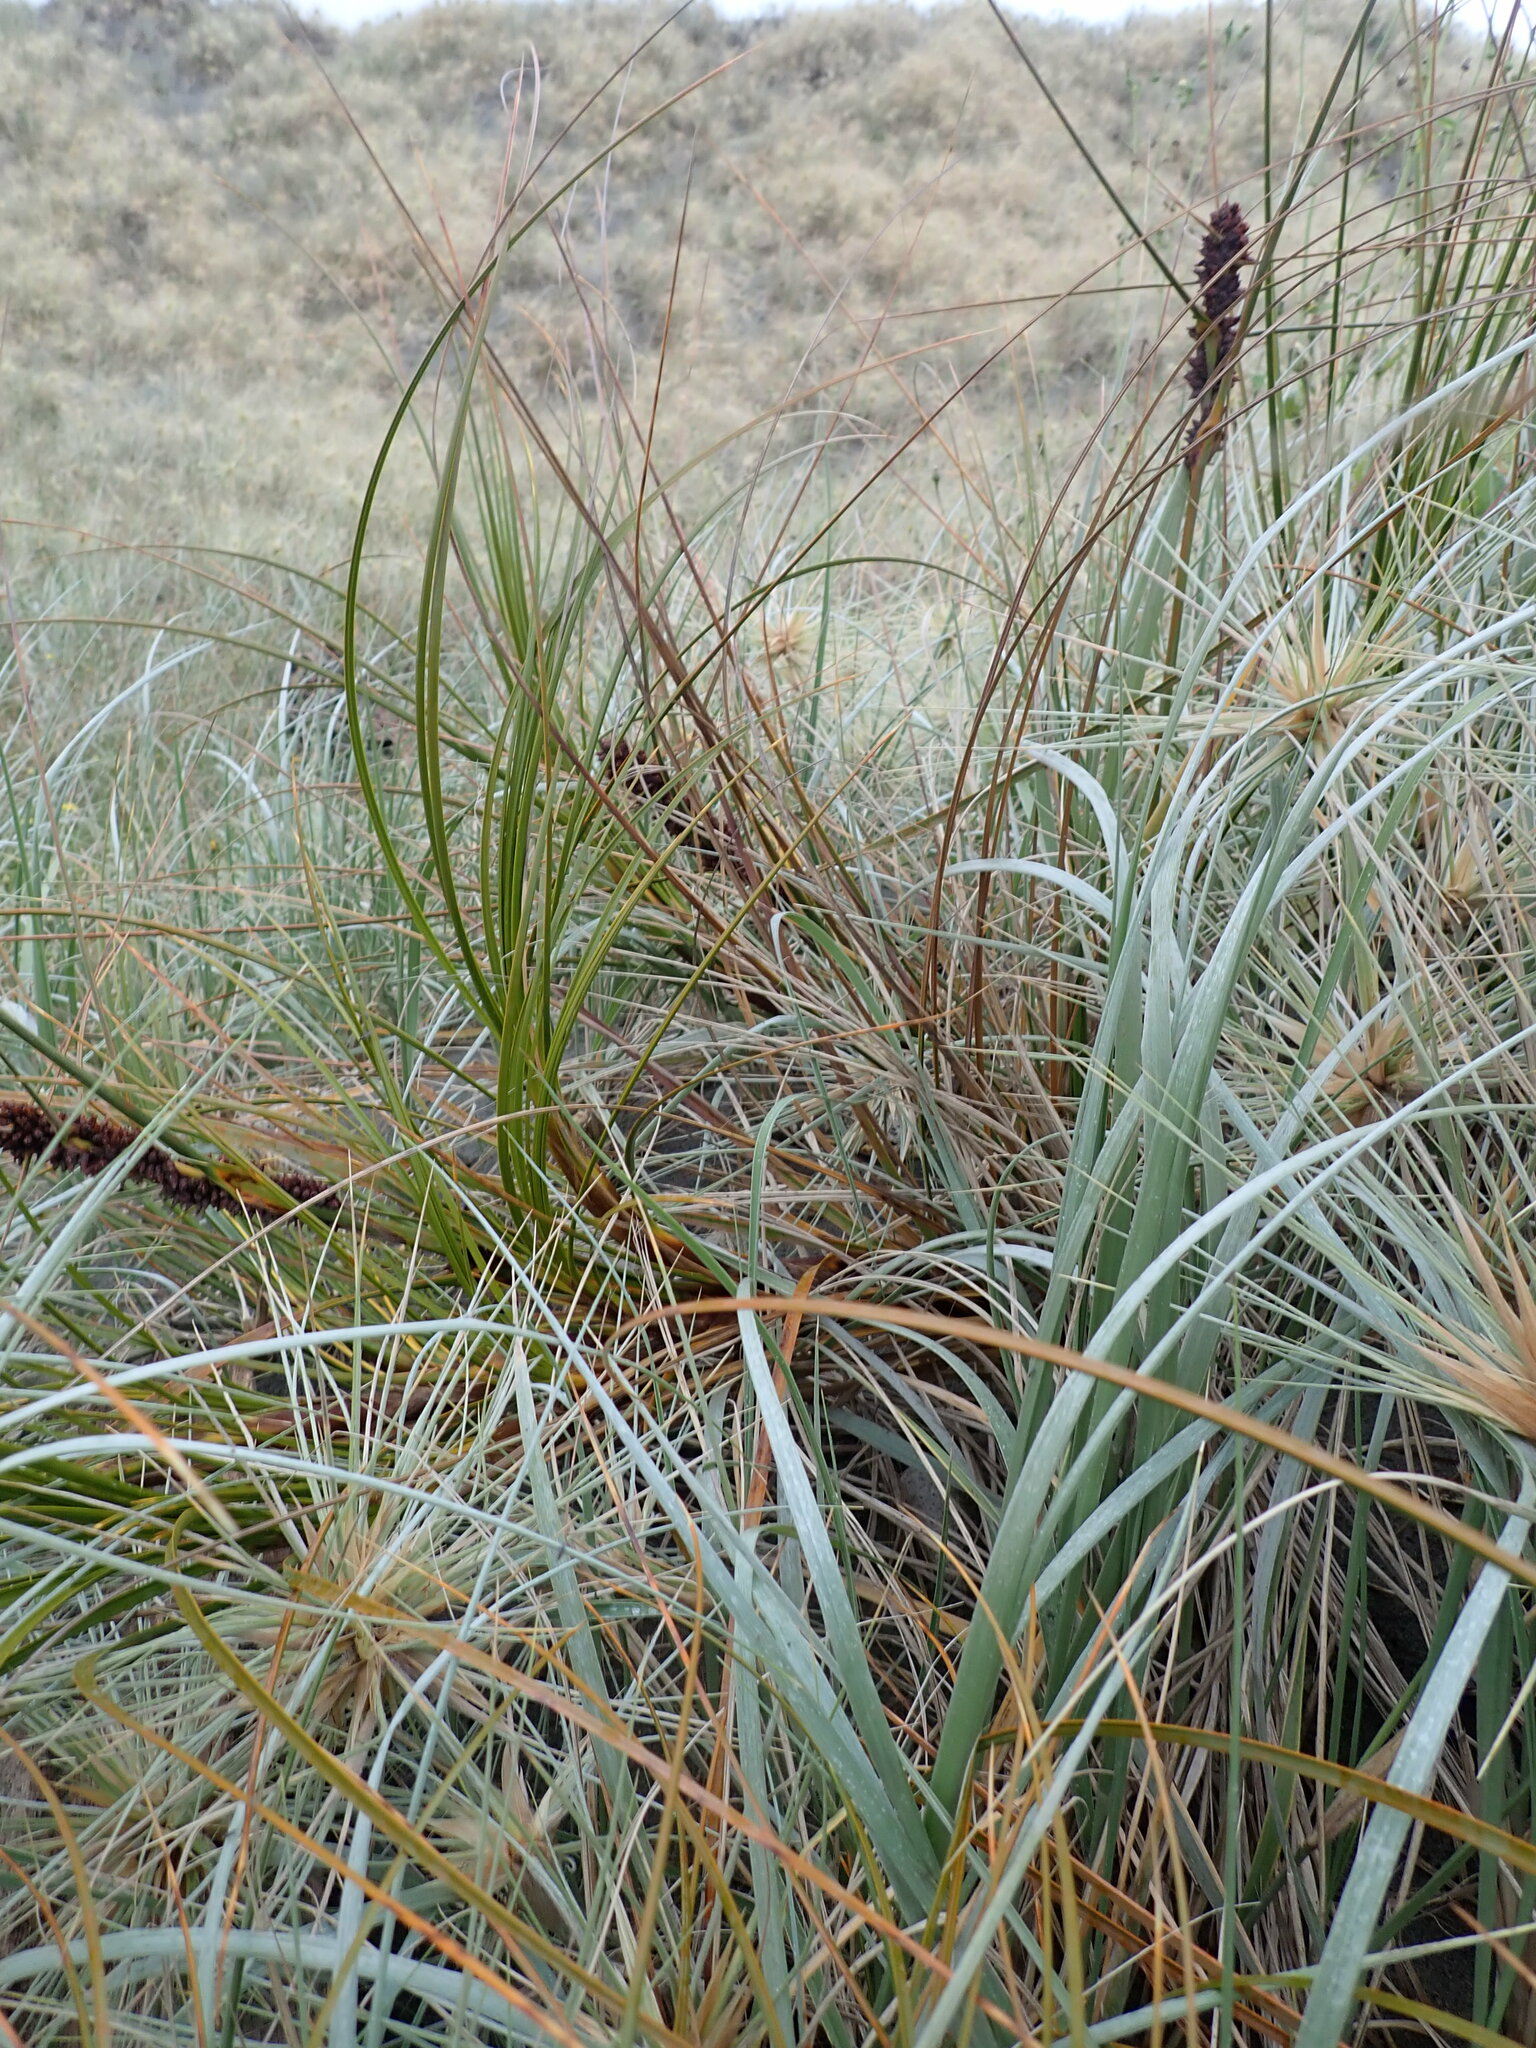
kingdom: Plantae
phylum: Tracheophyta
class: Liliopsida
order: Poales
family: Cyperaceae
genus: Ficinia
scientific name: Ficinia spiralis
